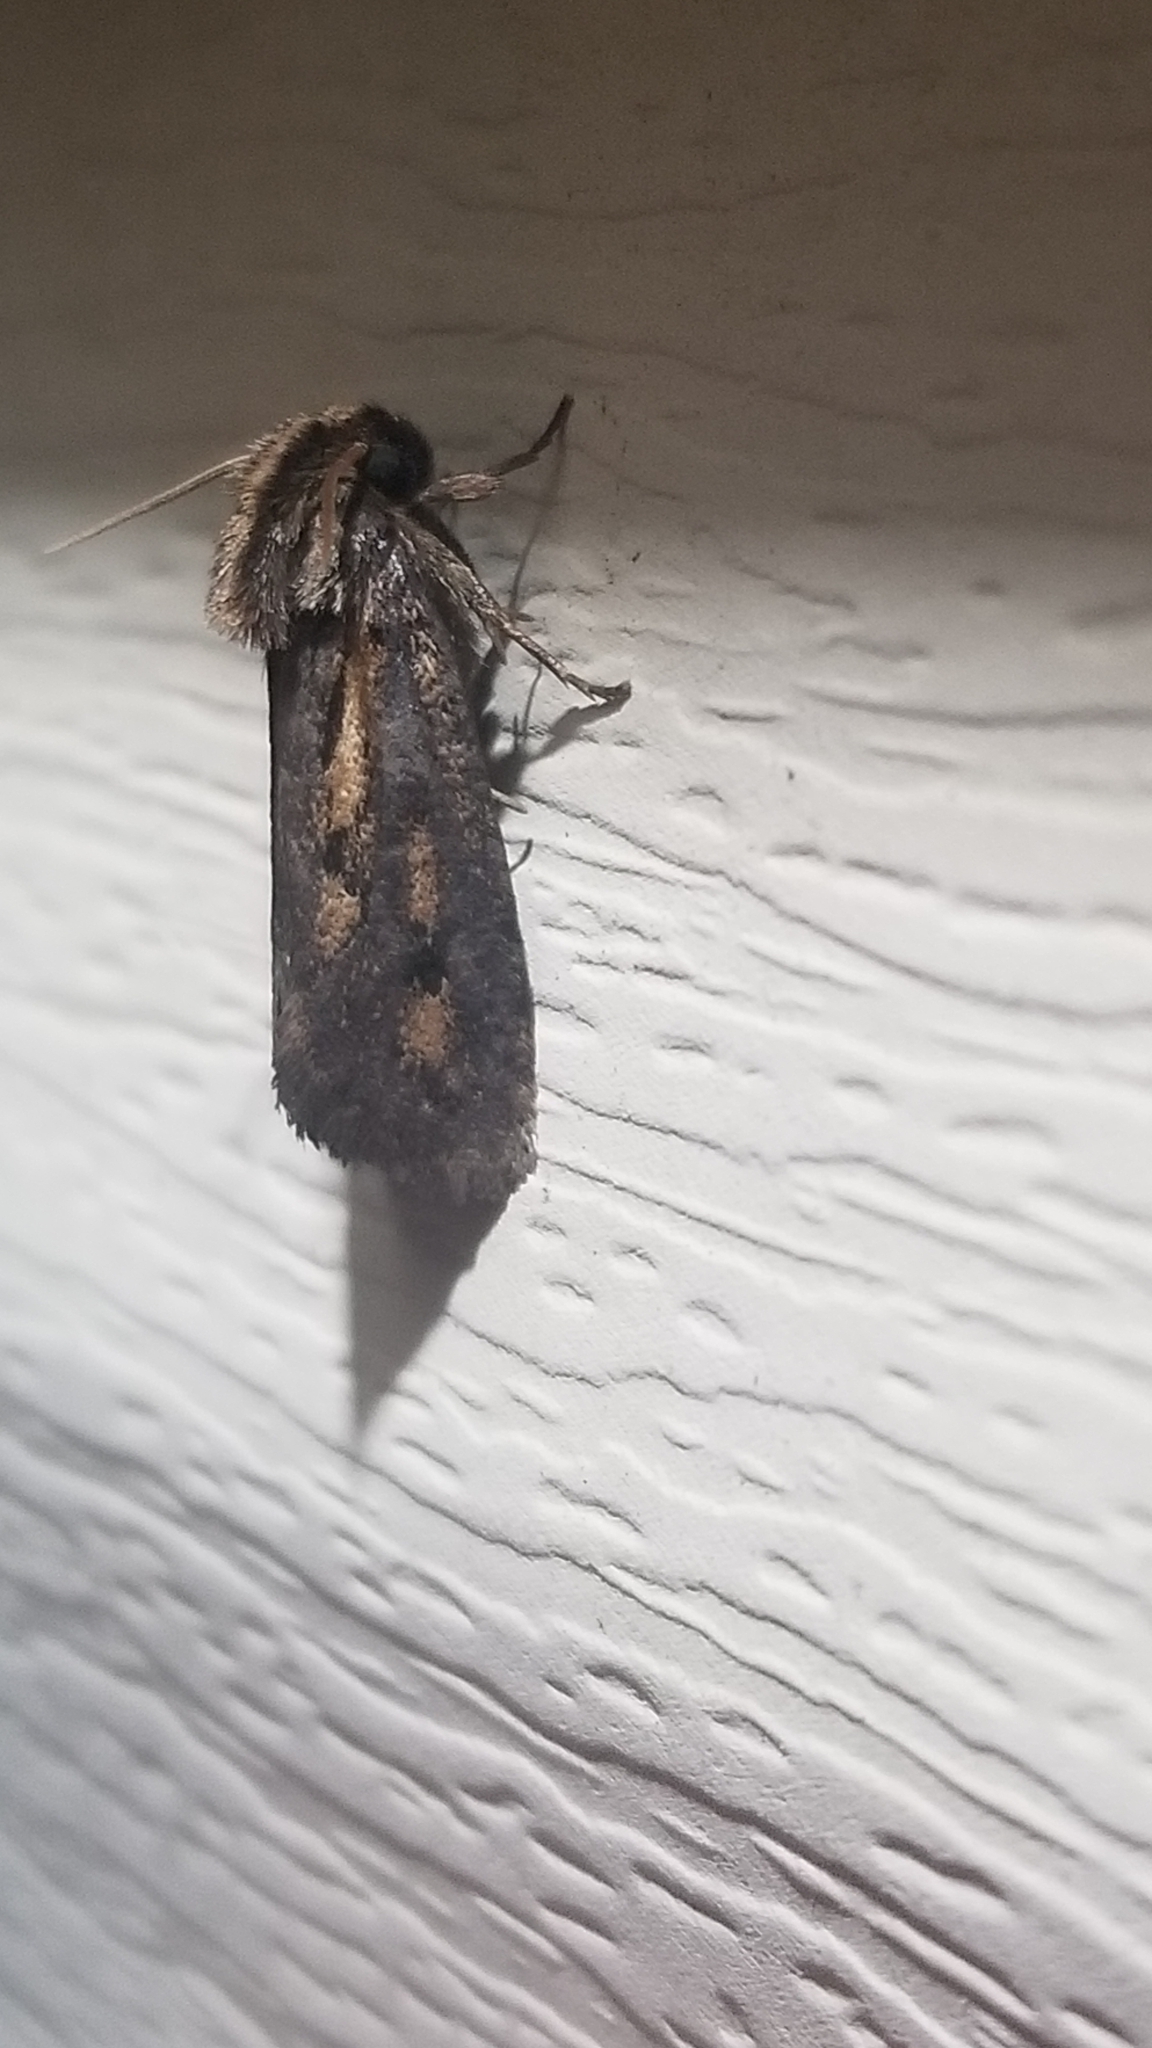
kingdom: Animalia
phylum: Arthropoda
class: Insecta
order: Lepidoptera
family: Tineidae
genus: Acrolophus
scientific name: Acrolophus popeanella
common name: Clemens' grass tubeworm moth
